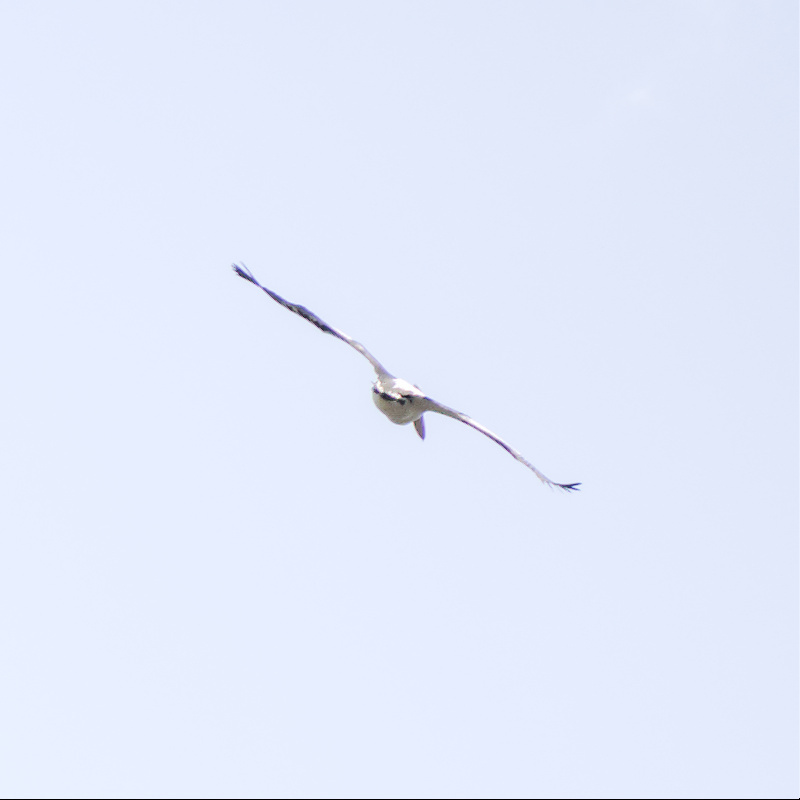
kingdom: Animalia
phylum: Chordata
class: Aves
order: Pelecaniformes
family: Pelecanidae
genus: Pelecanus
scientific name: Pelecanus conspicillatus
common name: Australian pelican
